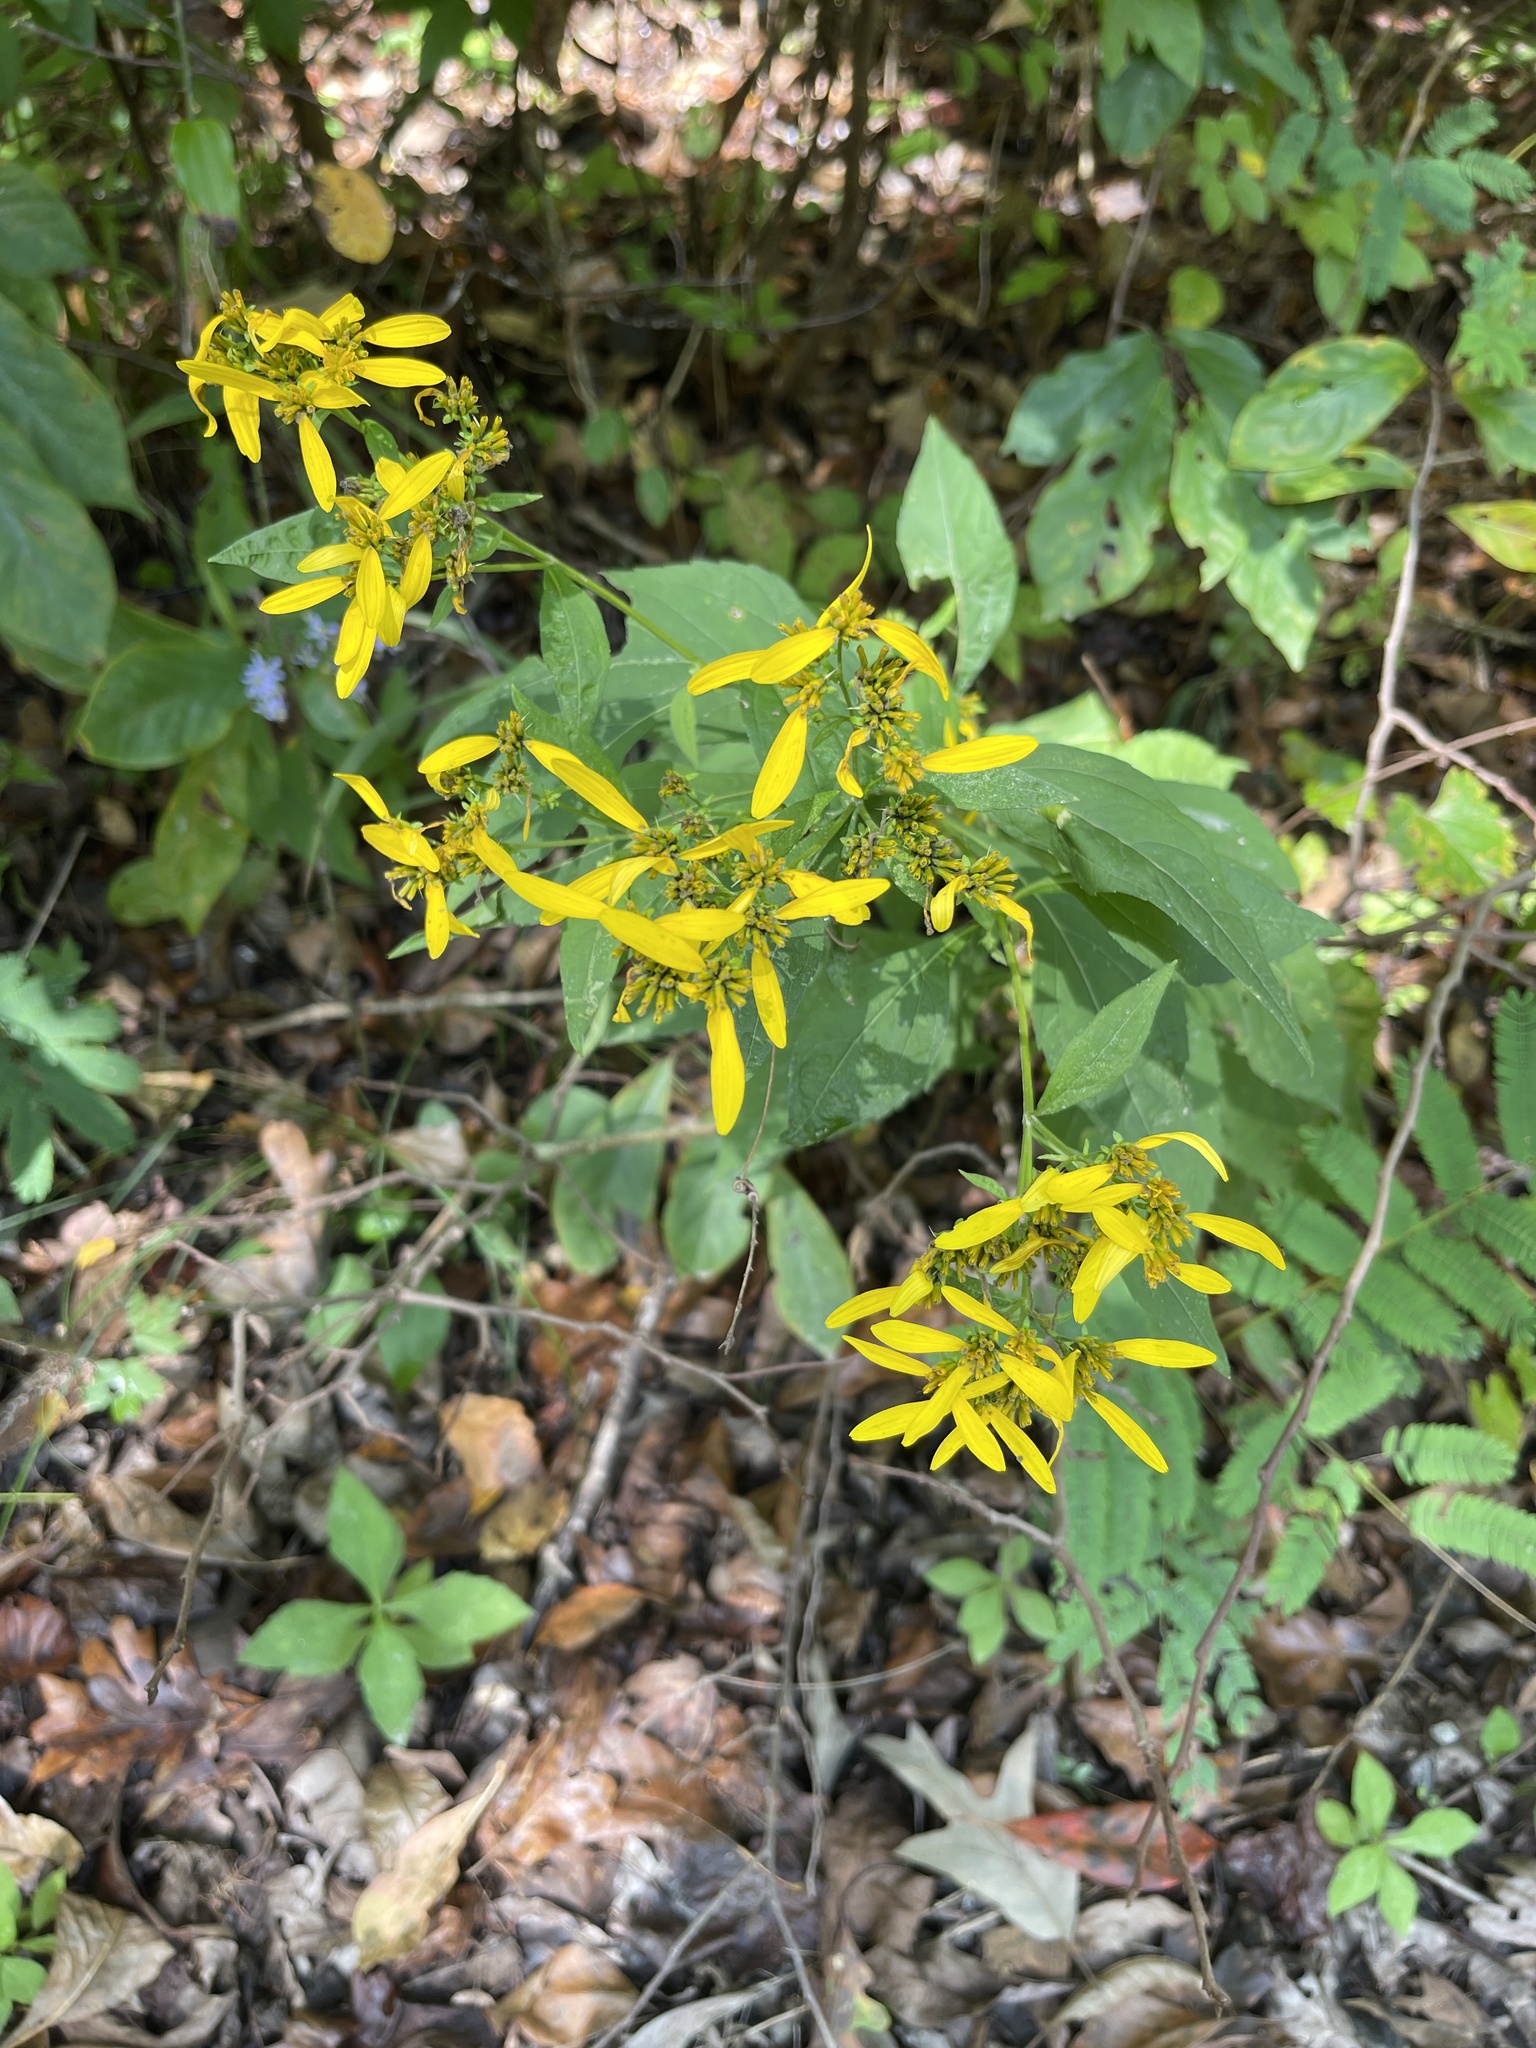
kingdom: Plantae
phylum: Tracheophyta
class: Magnoliopsida
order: Asterales
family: Asteraceae
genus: Verbesina
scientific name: Verbesina occidentalis
